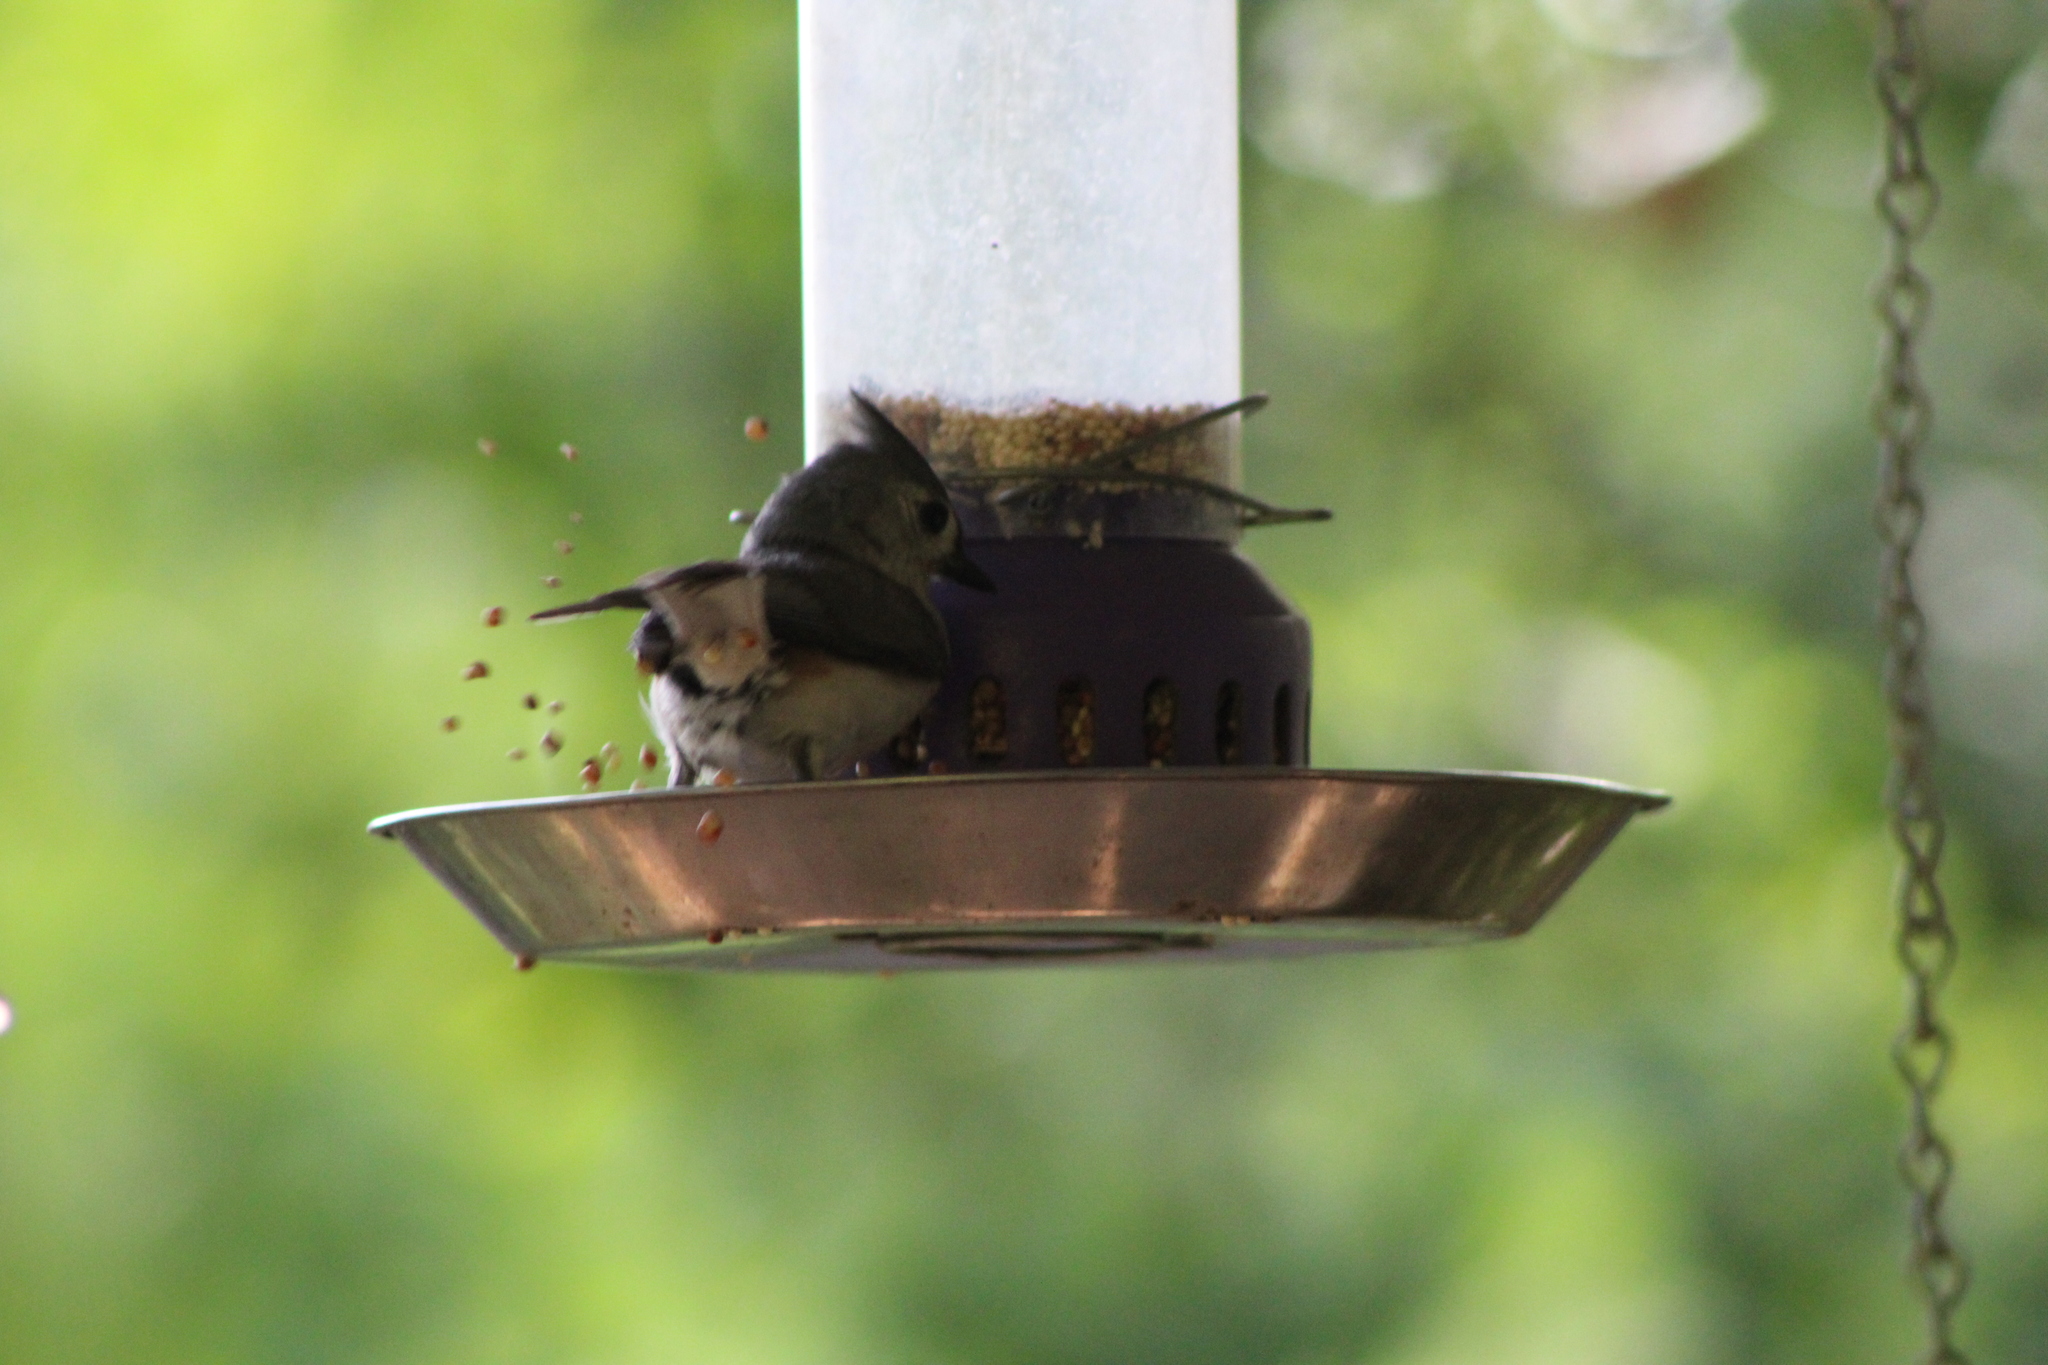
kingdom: Animalia
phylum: Chordata
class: Aves
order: Passeriformes
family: Paridae
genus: Baeolophus
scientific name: Baeolophus bicolor
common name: Tufted titmouse
